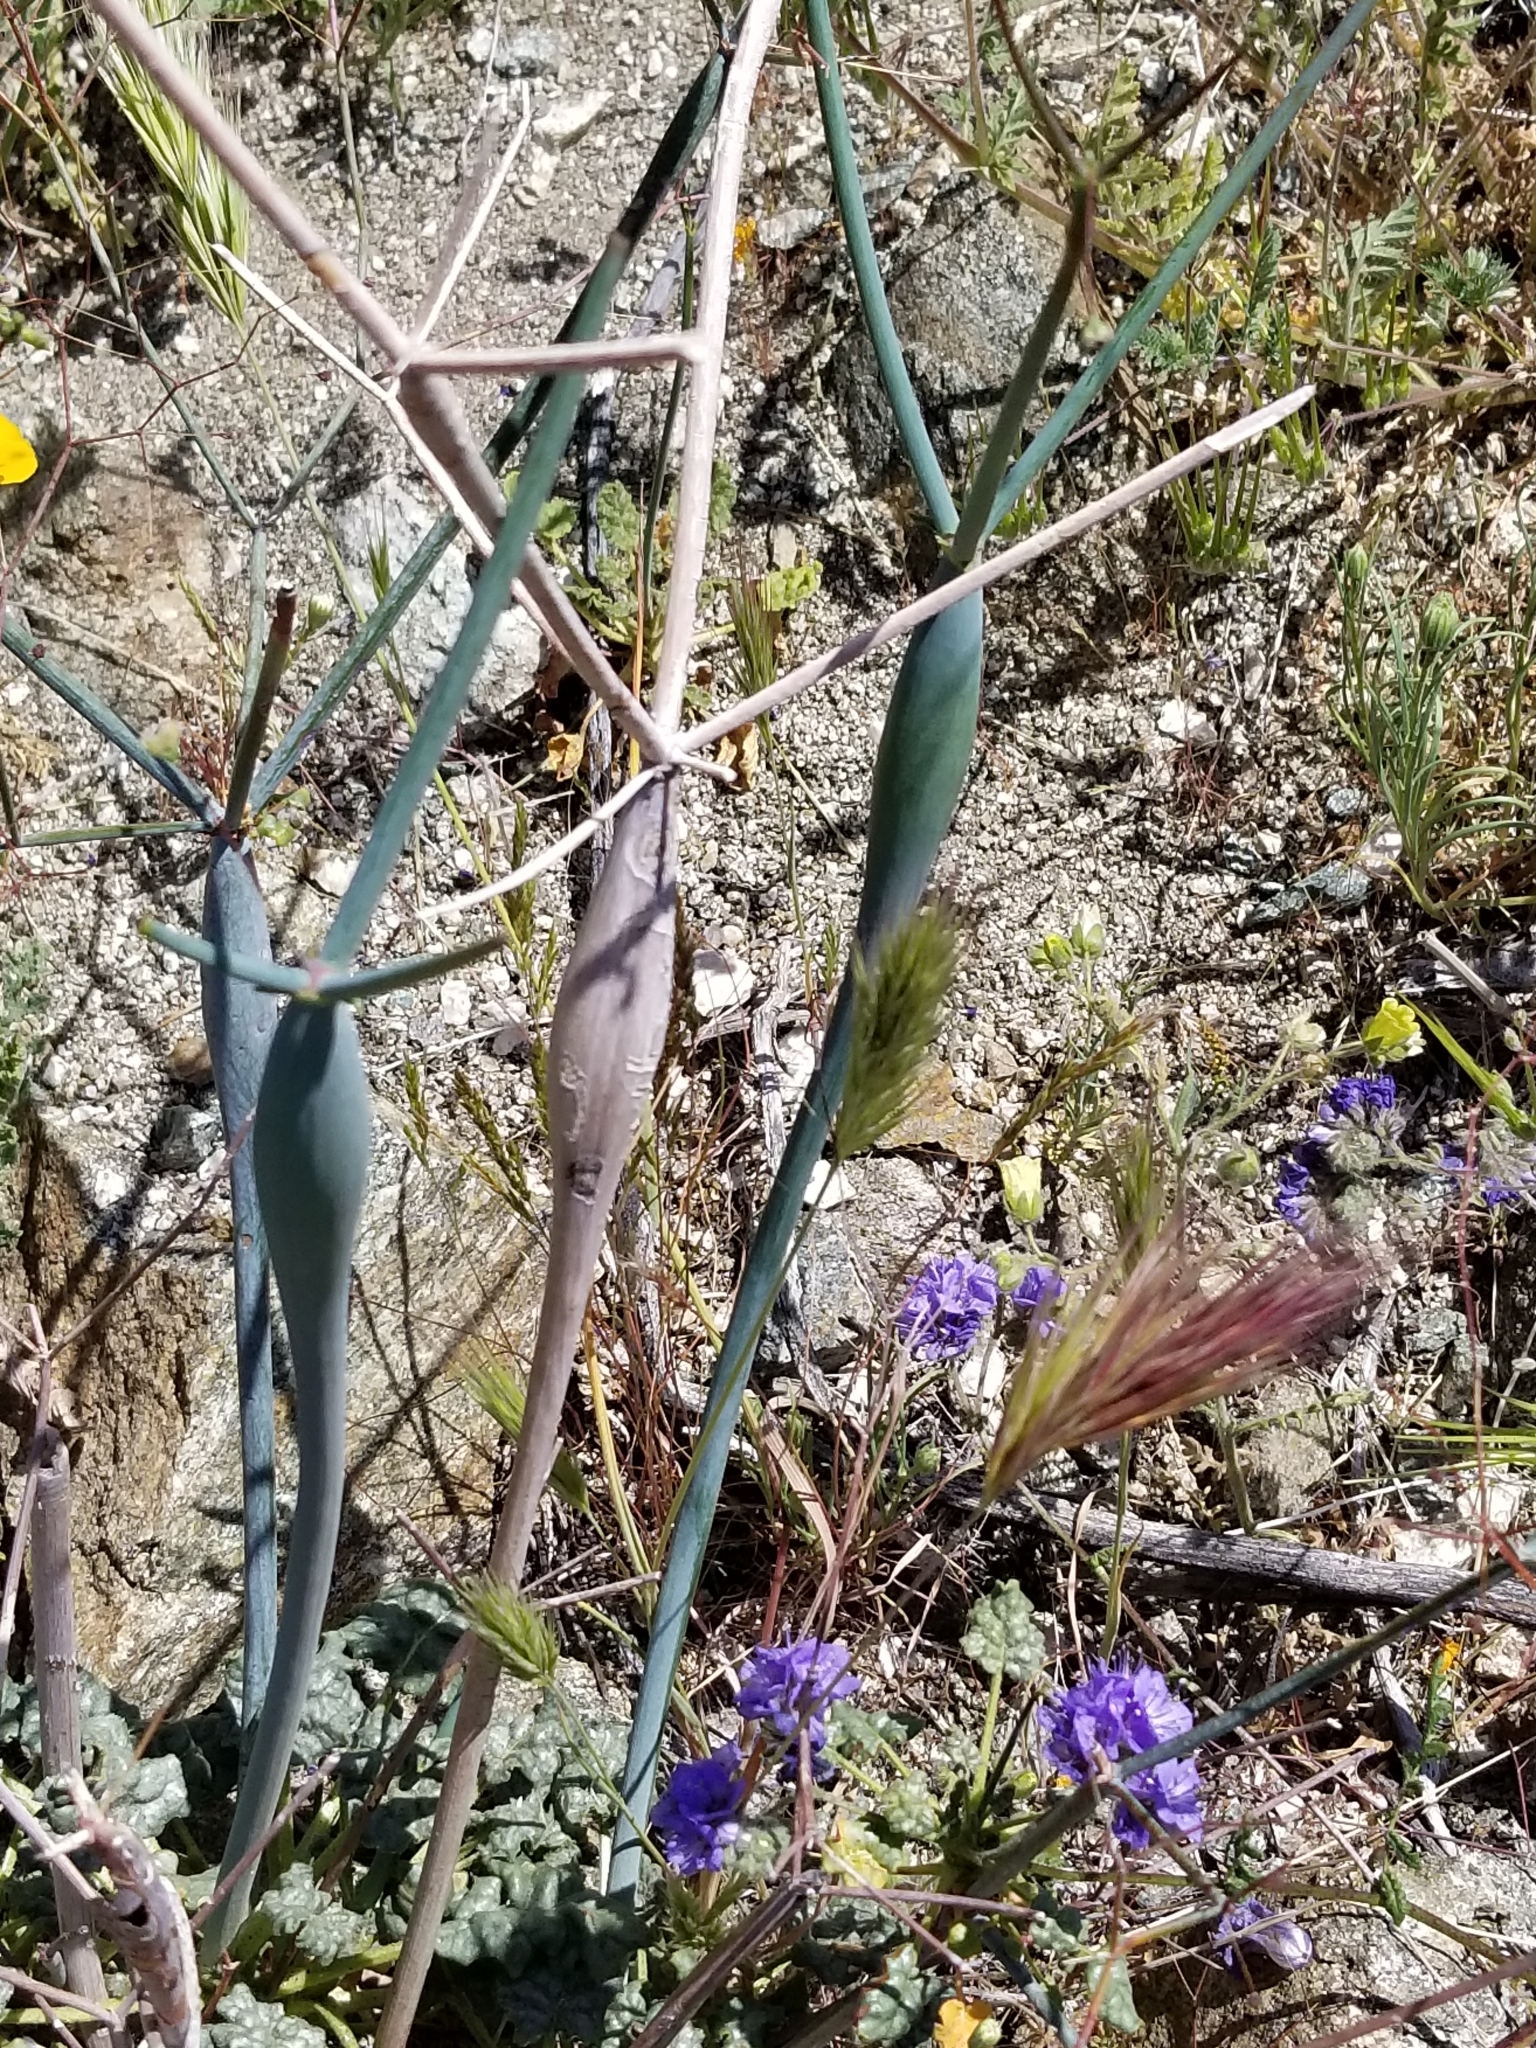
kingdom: Plantae
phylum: Tracheophyta
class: Magnoliopsida
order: Caryophyllales
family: Polygonaceae
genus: Eriogonum
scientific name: Eriogonum inflatum
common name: Desert trumpet
